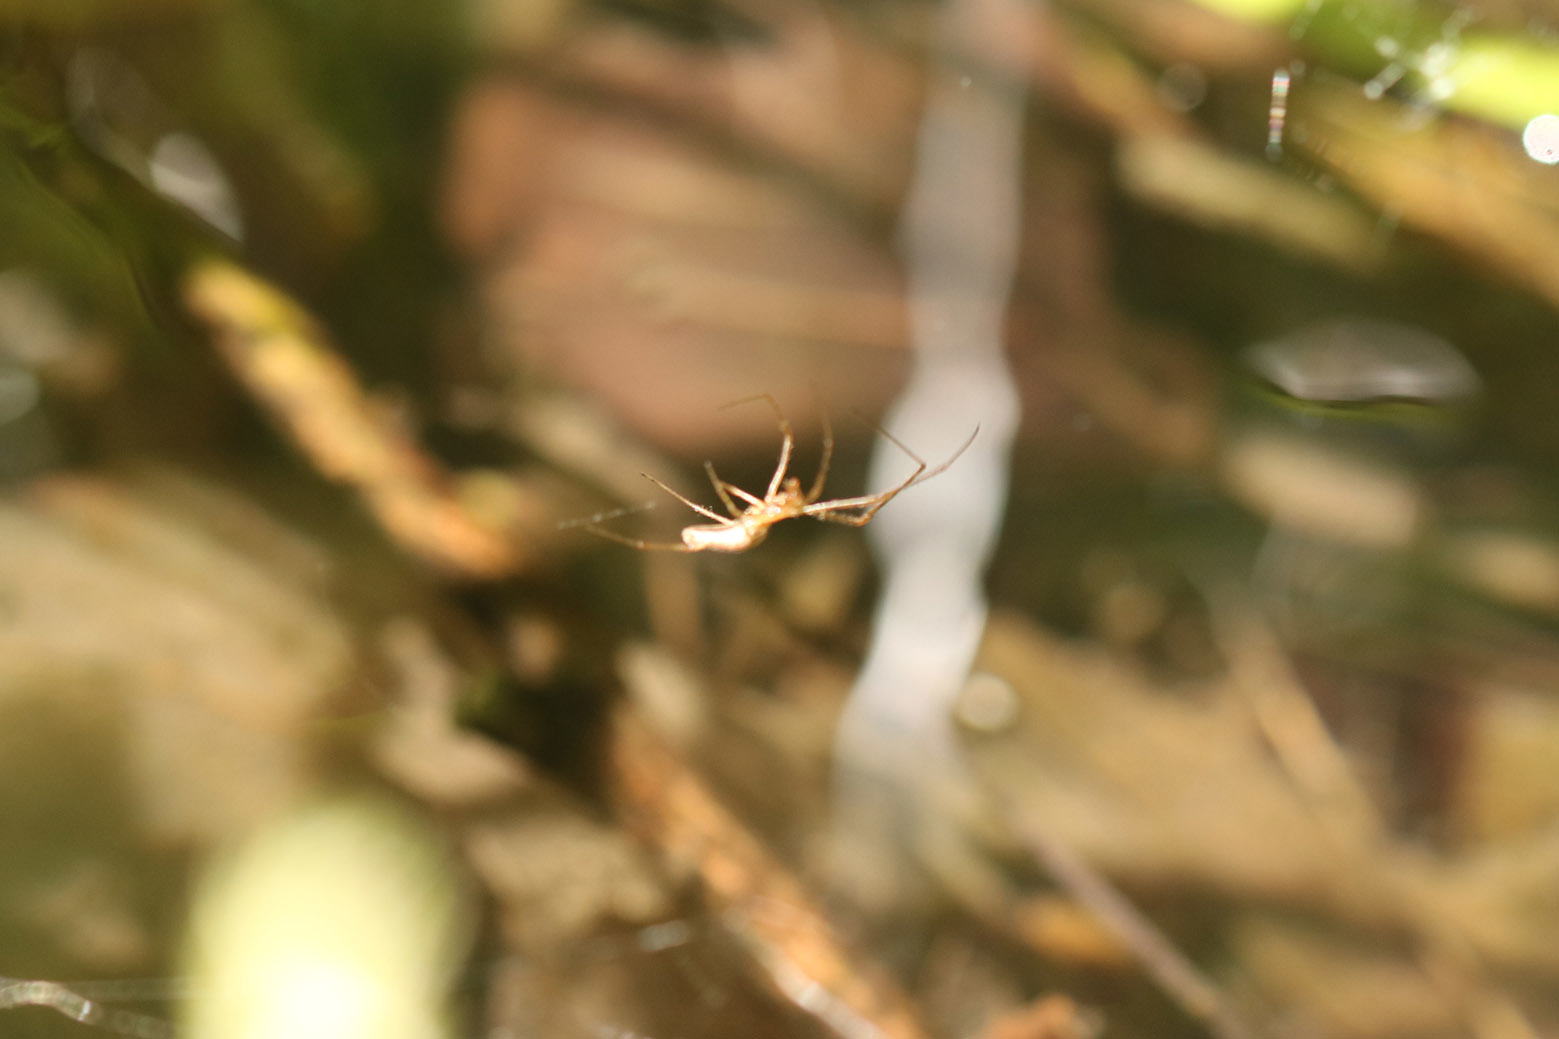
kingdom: Animalia
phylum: Arthropoda
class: Arachnida
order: Araneae
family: Tetragnathidae
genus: Tetragnatha
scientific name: Tetragnatha
